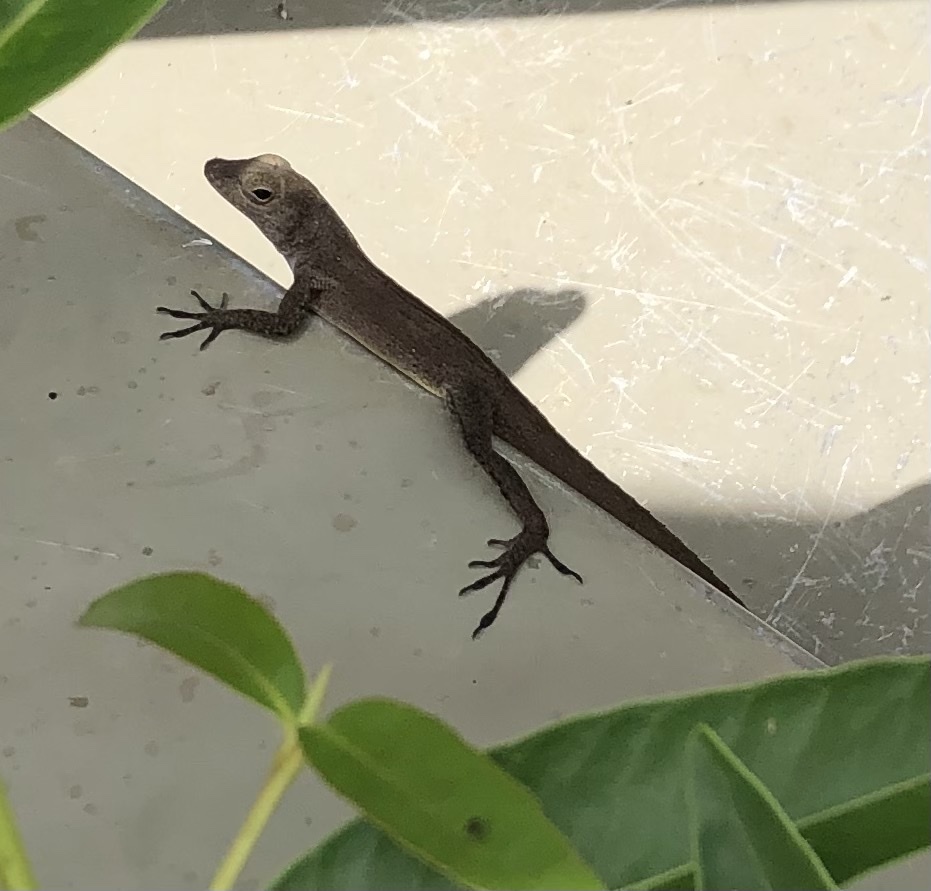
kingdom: Animalia
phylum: Chordata
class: Squamata
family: Dactyloidae
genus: Anolis
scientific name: Anolis cristatellus
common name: Crested anole
